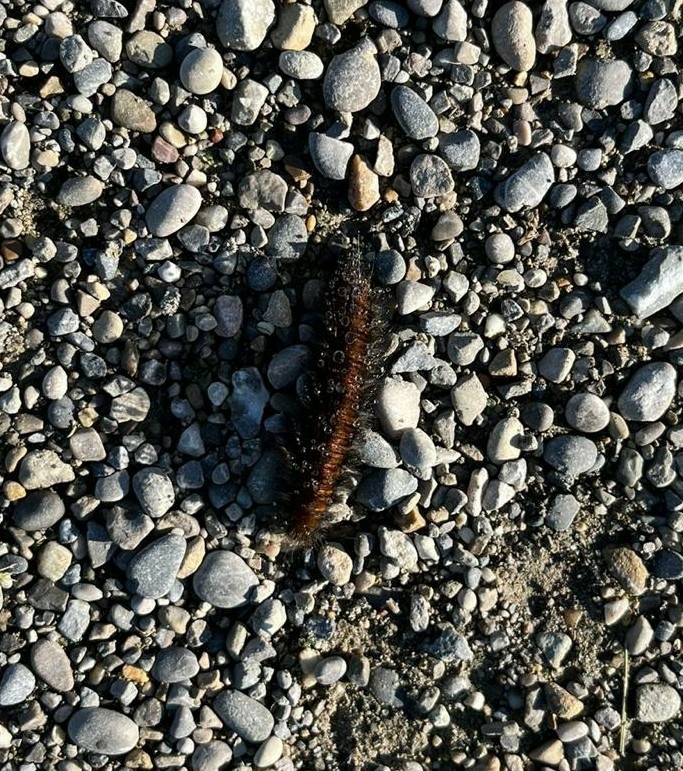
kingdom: Animalia
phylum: Arthropoda
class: Insecta
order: Lepidoptera
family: Lasiocampidae
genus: Macrothylacia
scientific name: Macrothylacia rubi
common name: Fox moth
